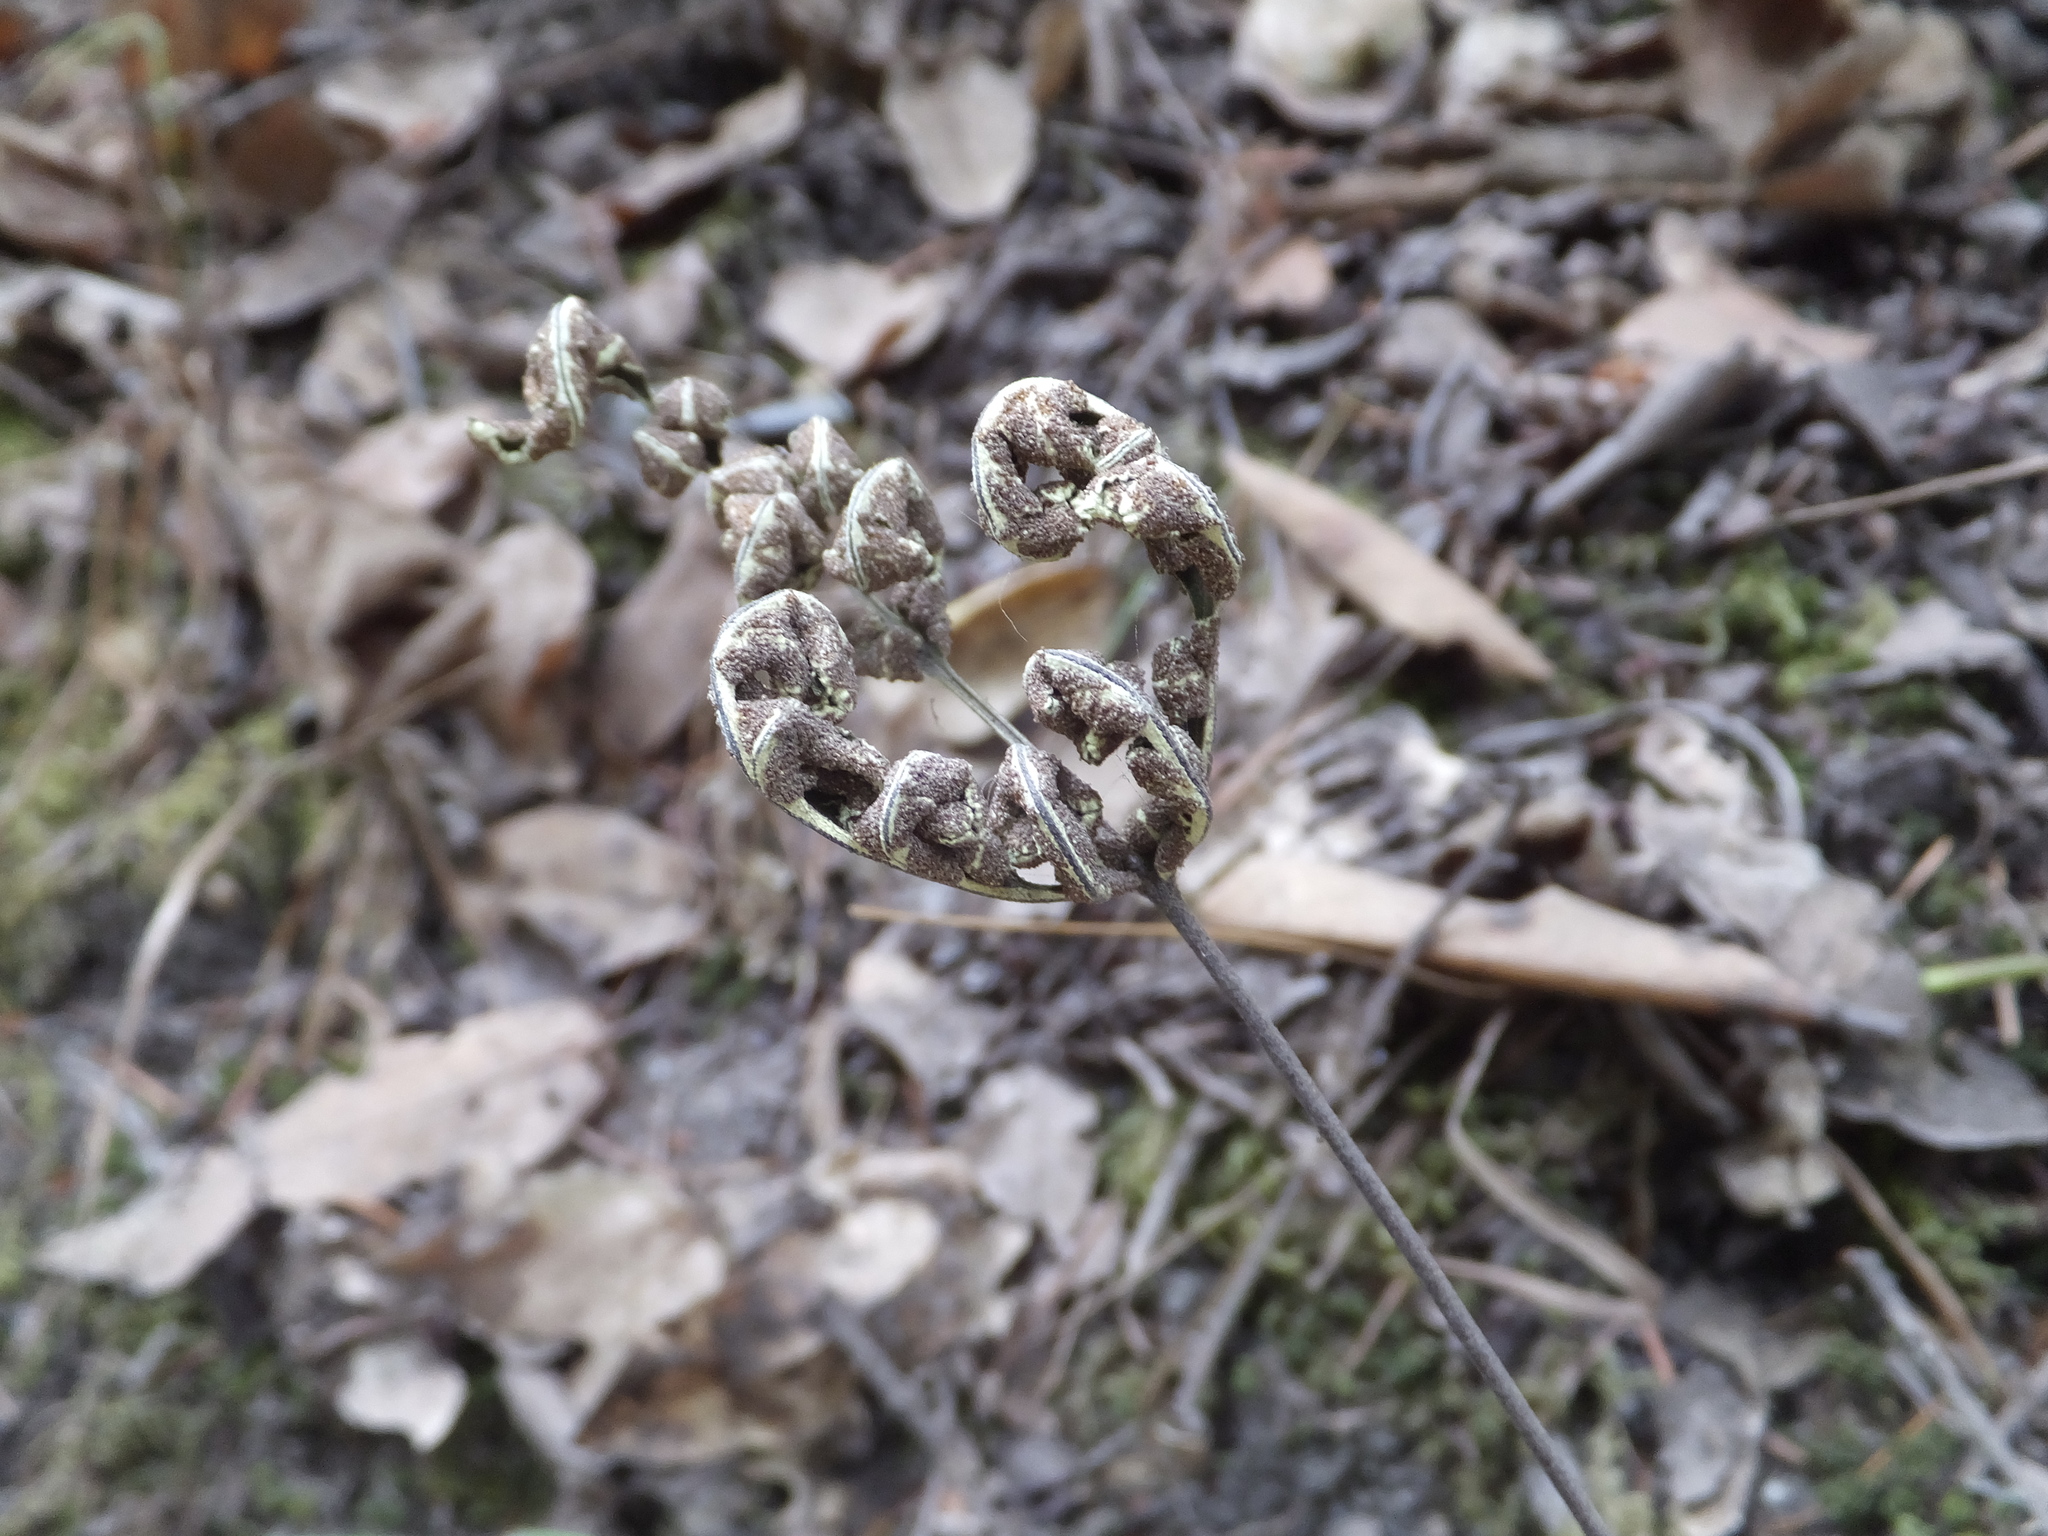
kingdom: Plantae
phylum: Tracheophyta
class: Polypodiopsida
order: Polypodiales
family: Pteridaceae
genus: Pentagramma
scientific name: Pentagramma triangularis
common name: Gold fern
